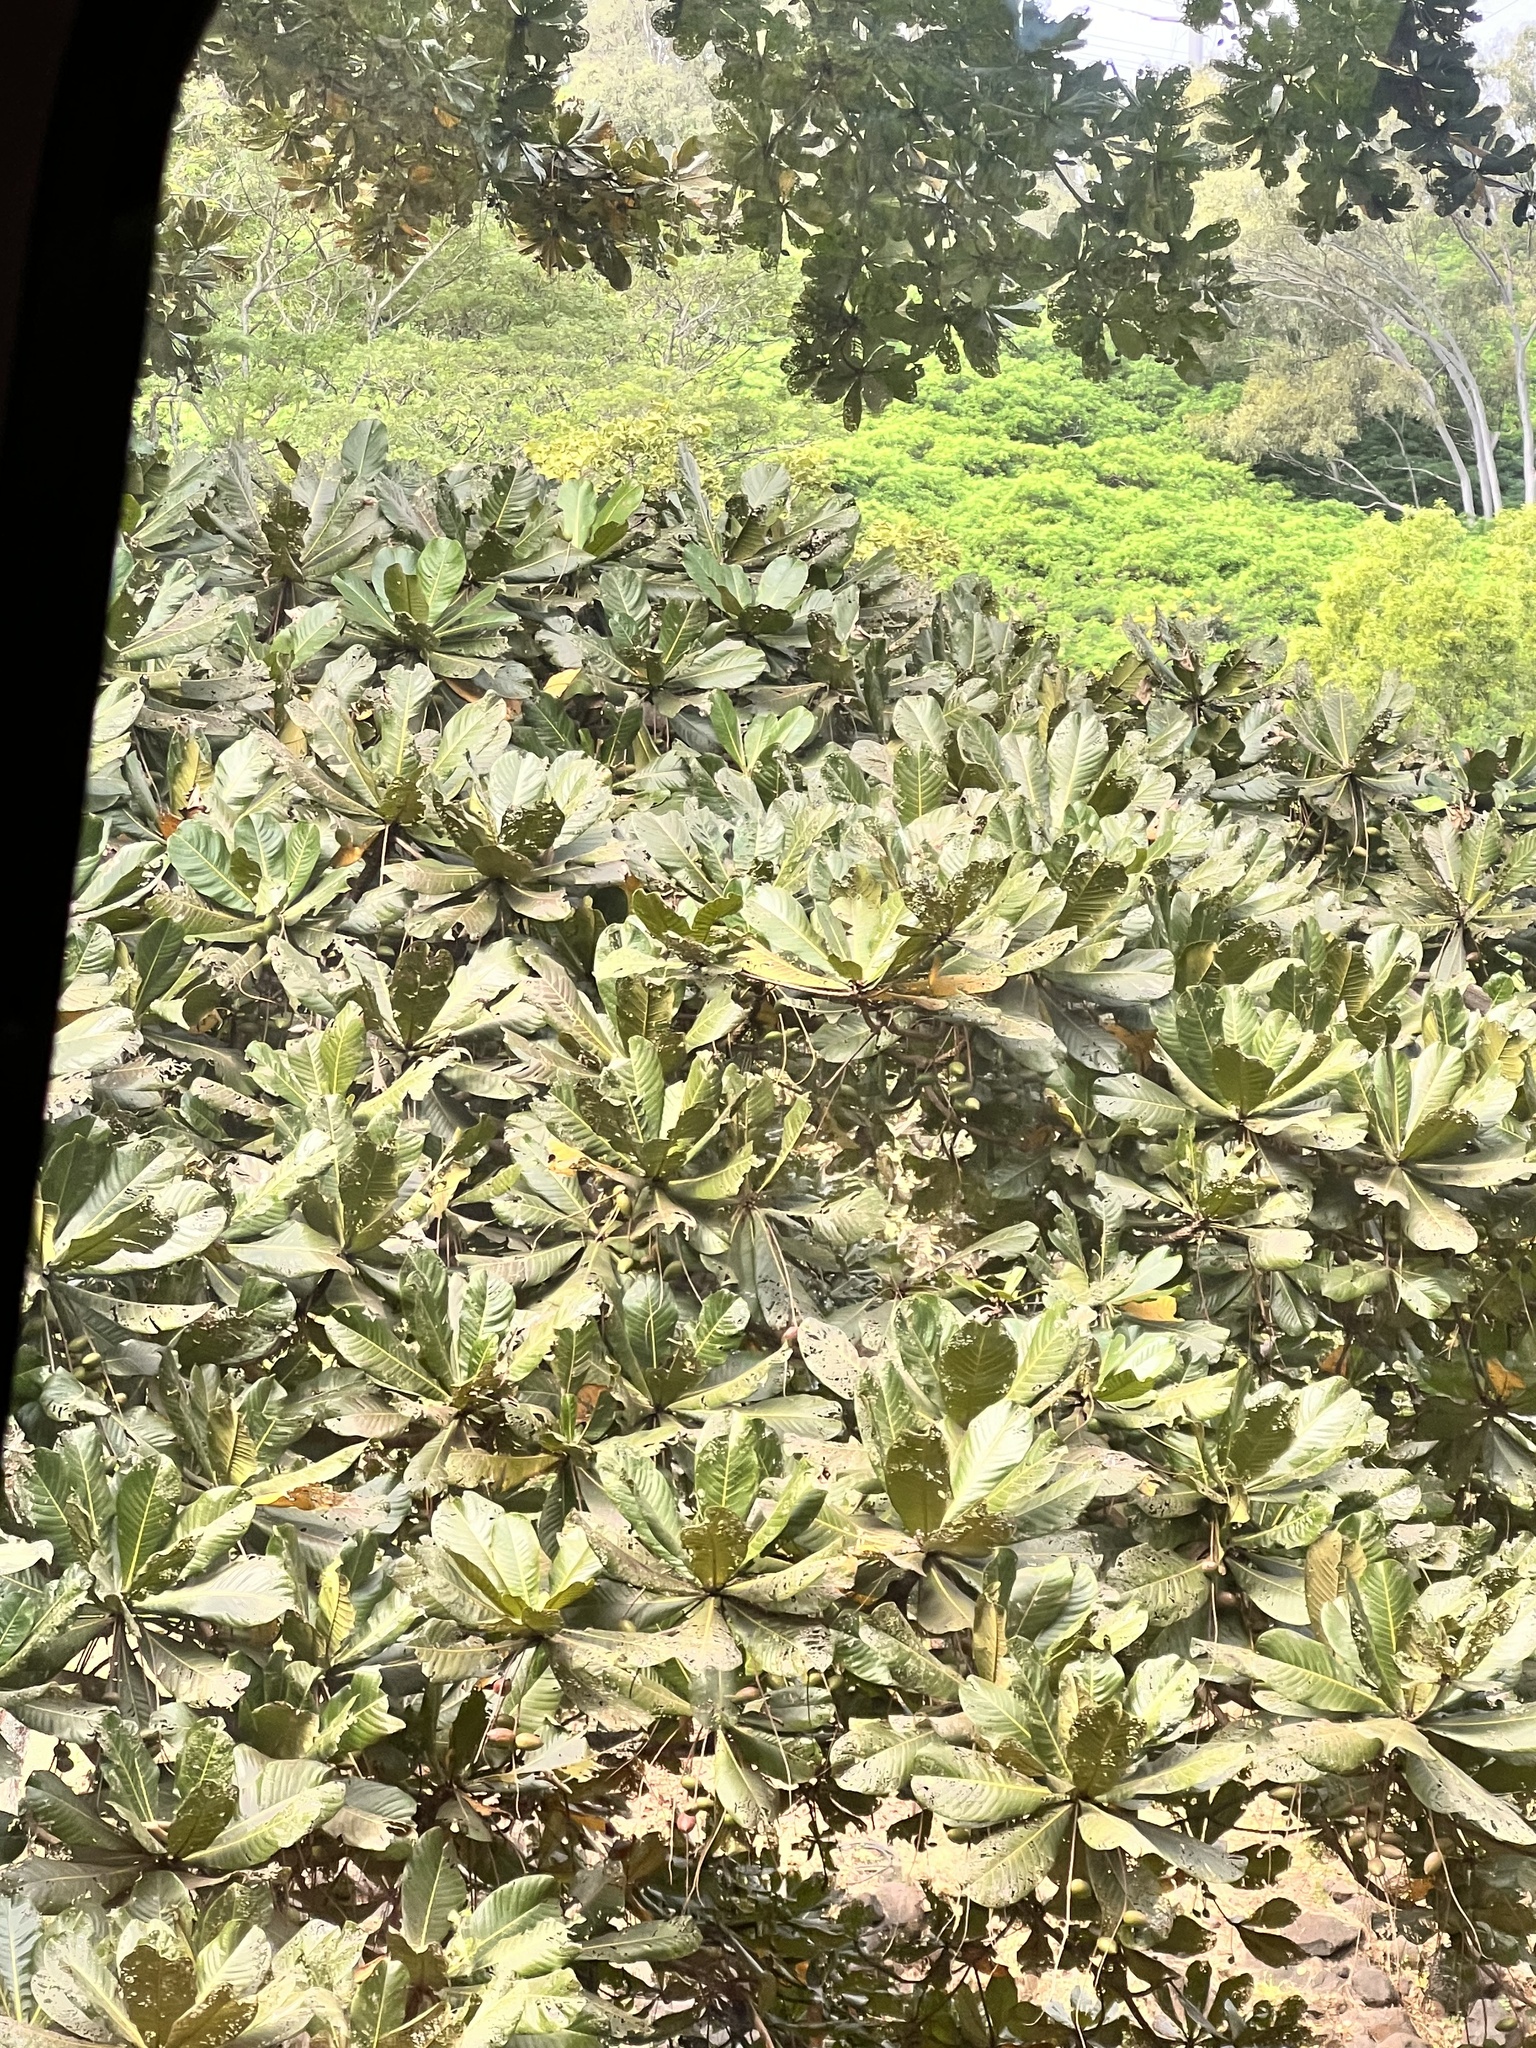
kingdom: Plantae
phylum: Tracheophyta
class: Magnoliopsida
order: Myrtales
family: Combretaceae
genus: Terminalia
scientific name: Terminalia catappa
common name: Tropical almond
